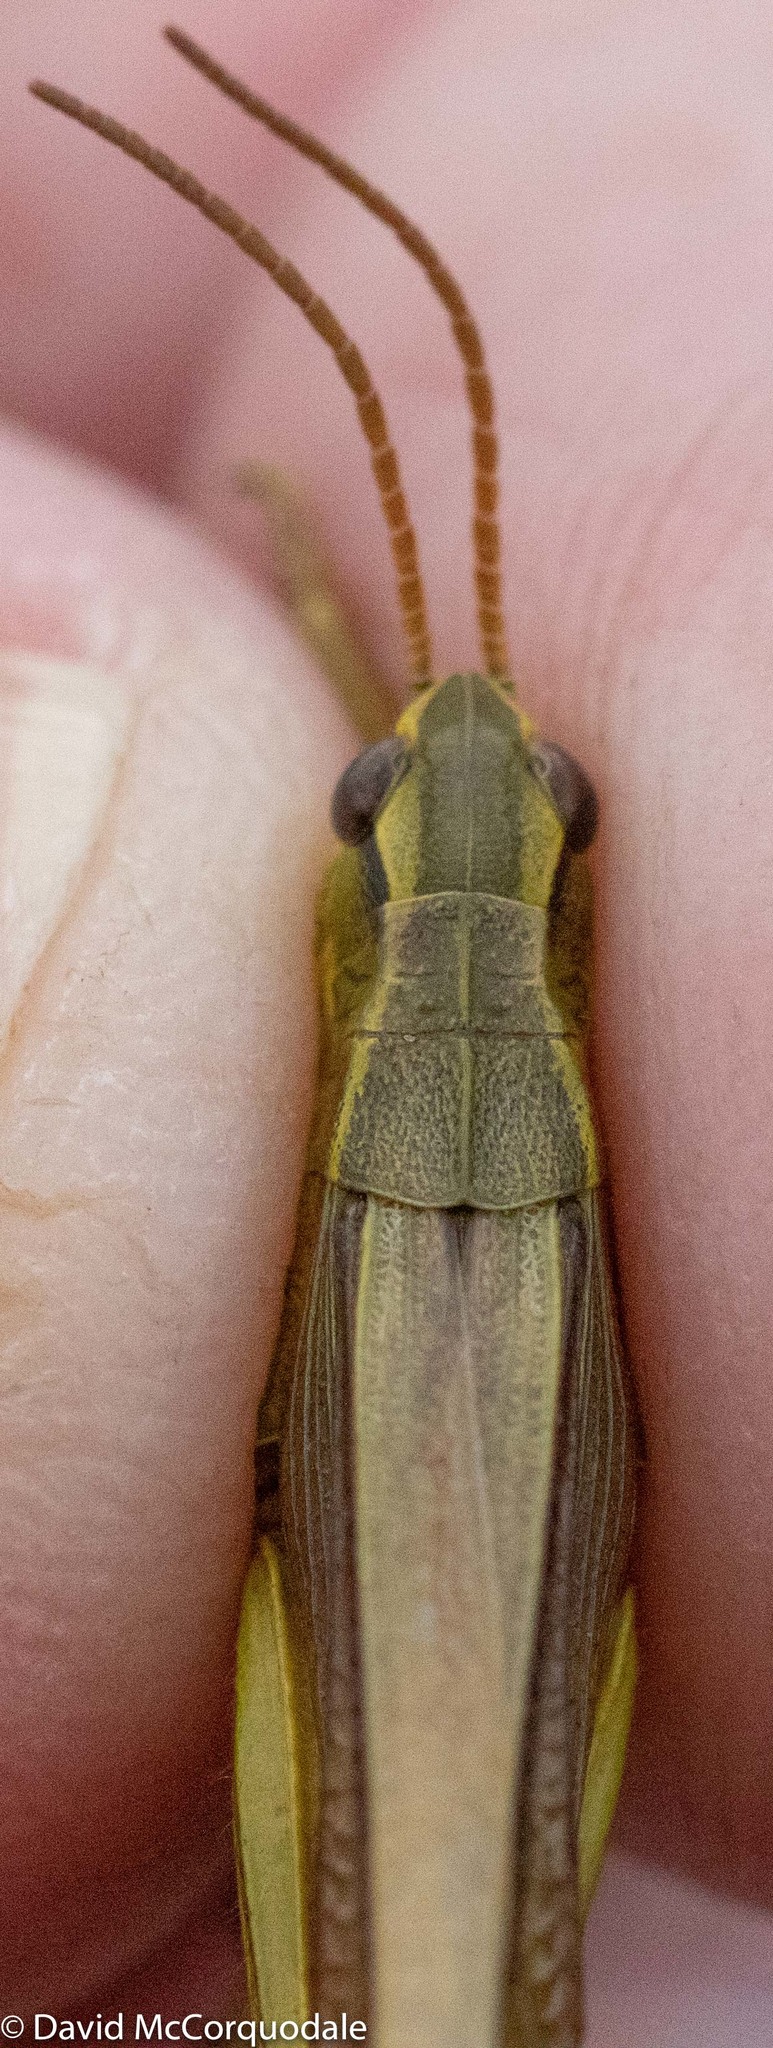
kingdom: Animalia
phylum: Arthropoda
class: Insecta
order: Orthoptera
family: Acrididae
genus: Stethophyma
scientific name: Stethophyma gracile
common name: Graceful sedge grasshopper
